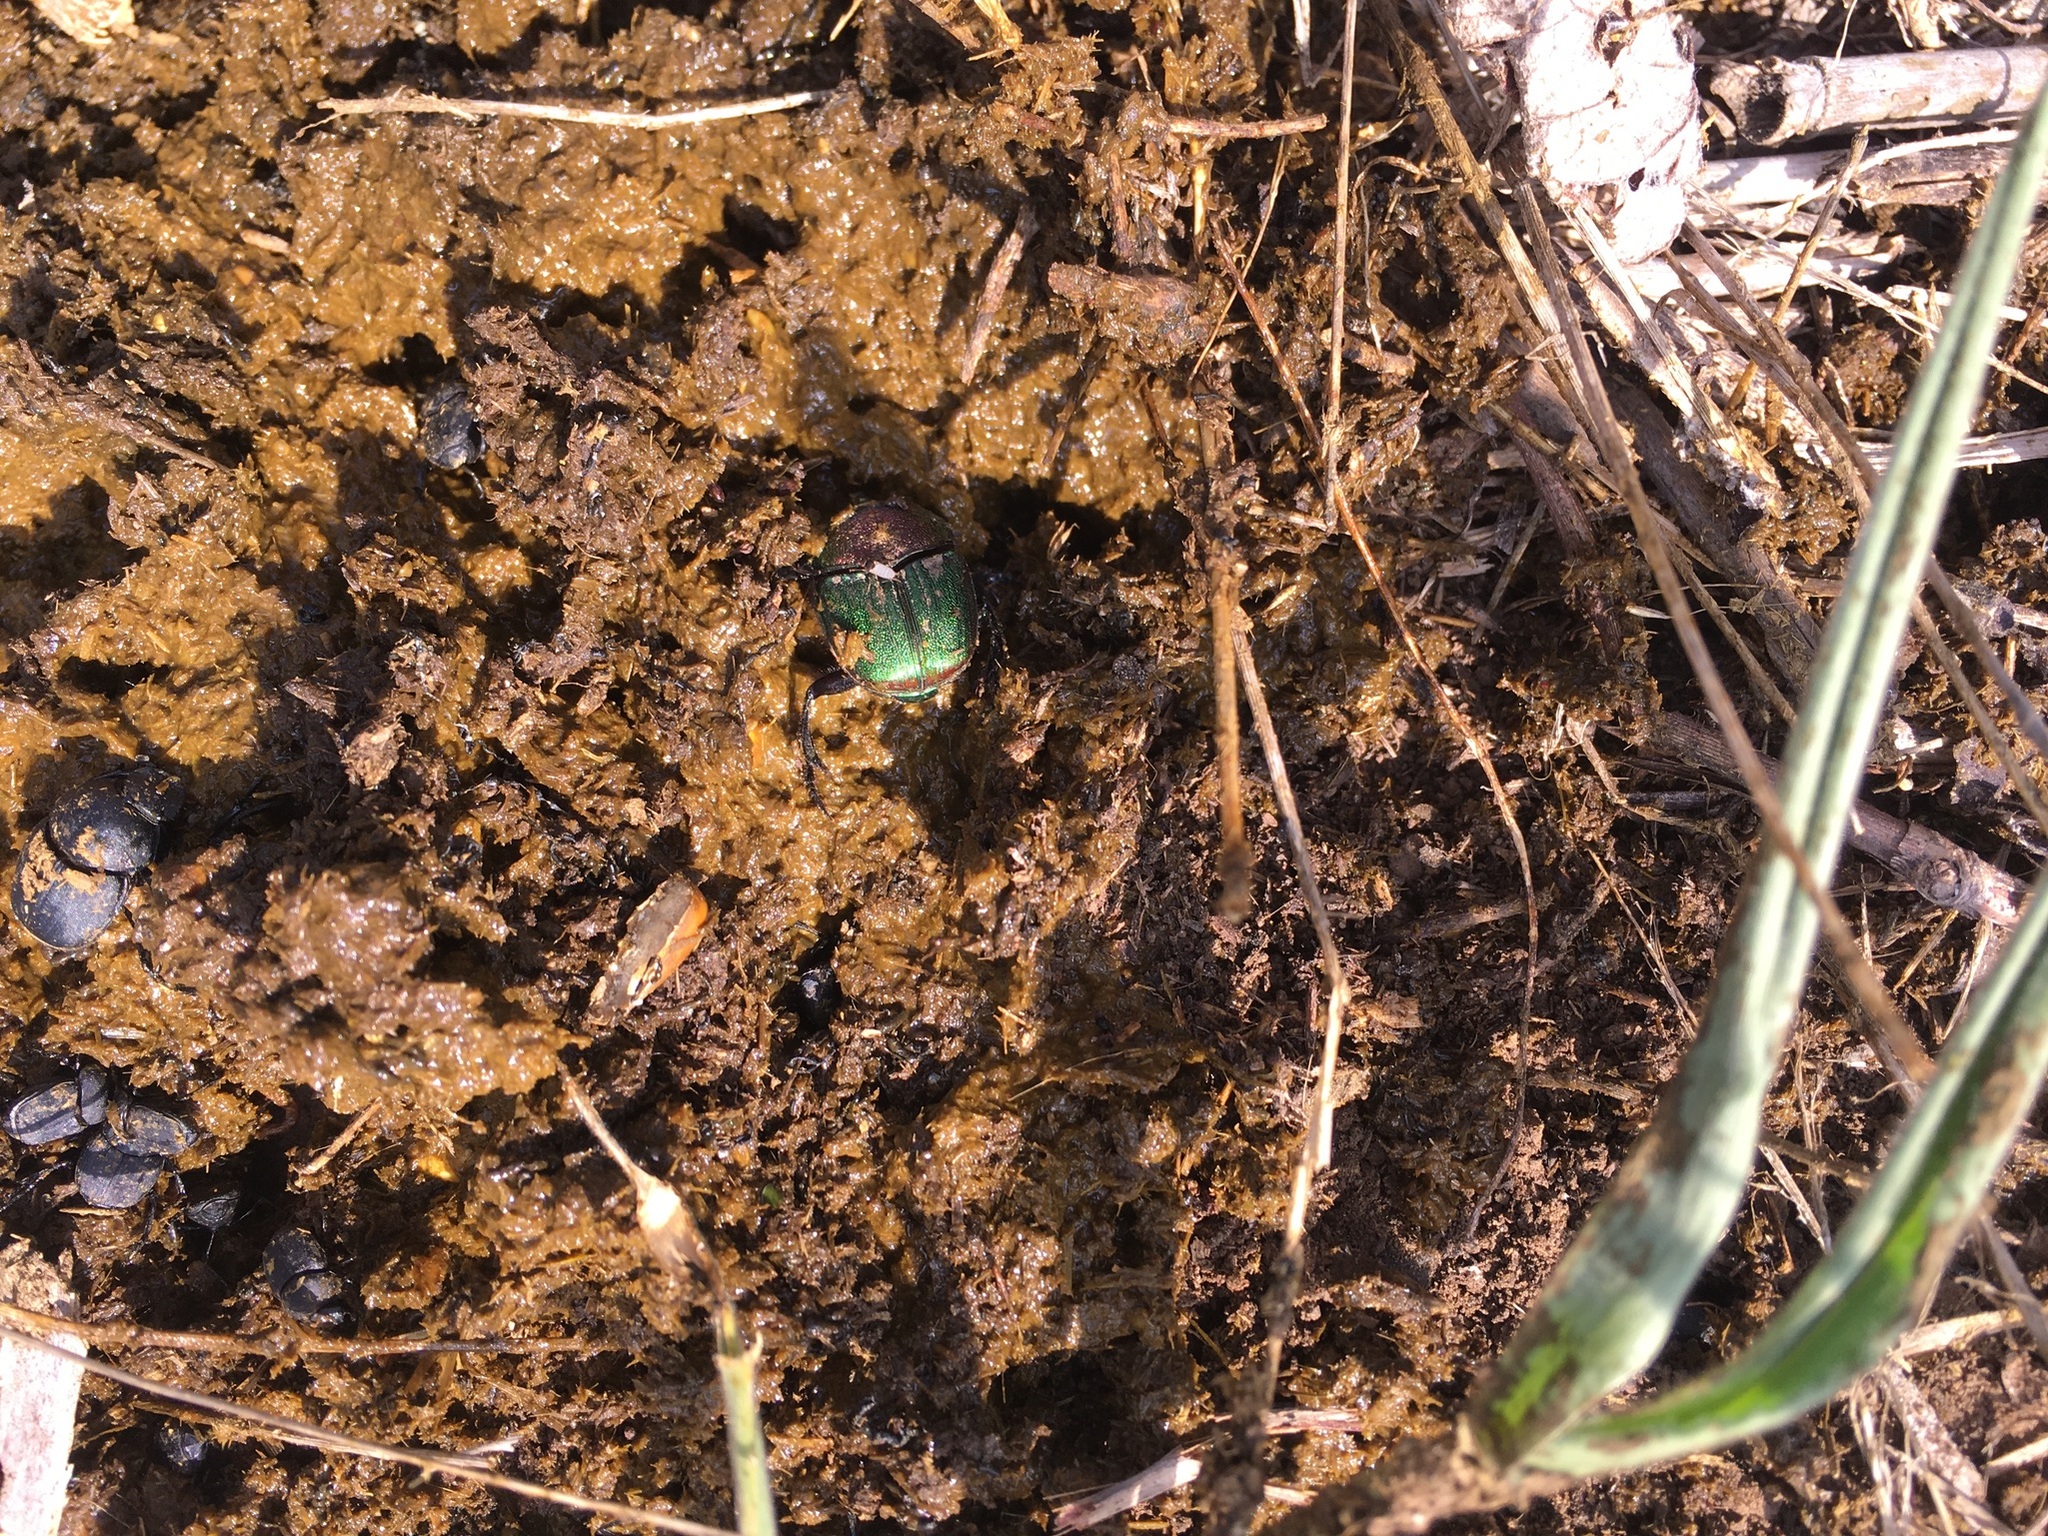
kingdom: Animalia
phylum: Arthropoda
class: Insecta
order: Coleoptera
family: Scarabaeidae
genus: Phanaeus
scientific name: Phanaeus difformis
